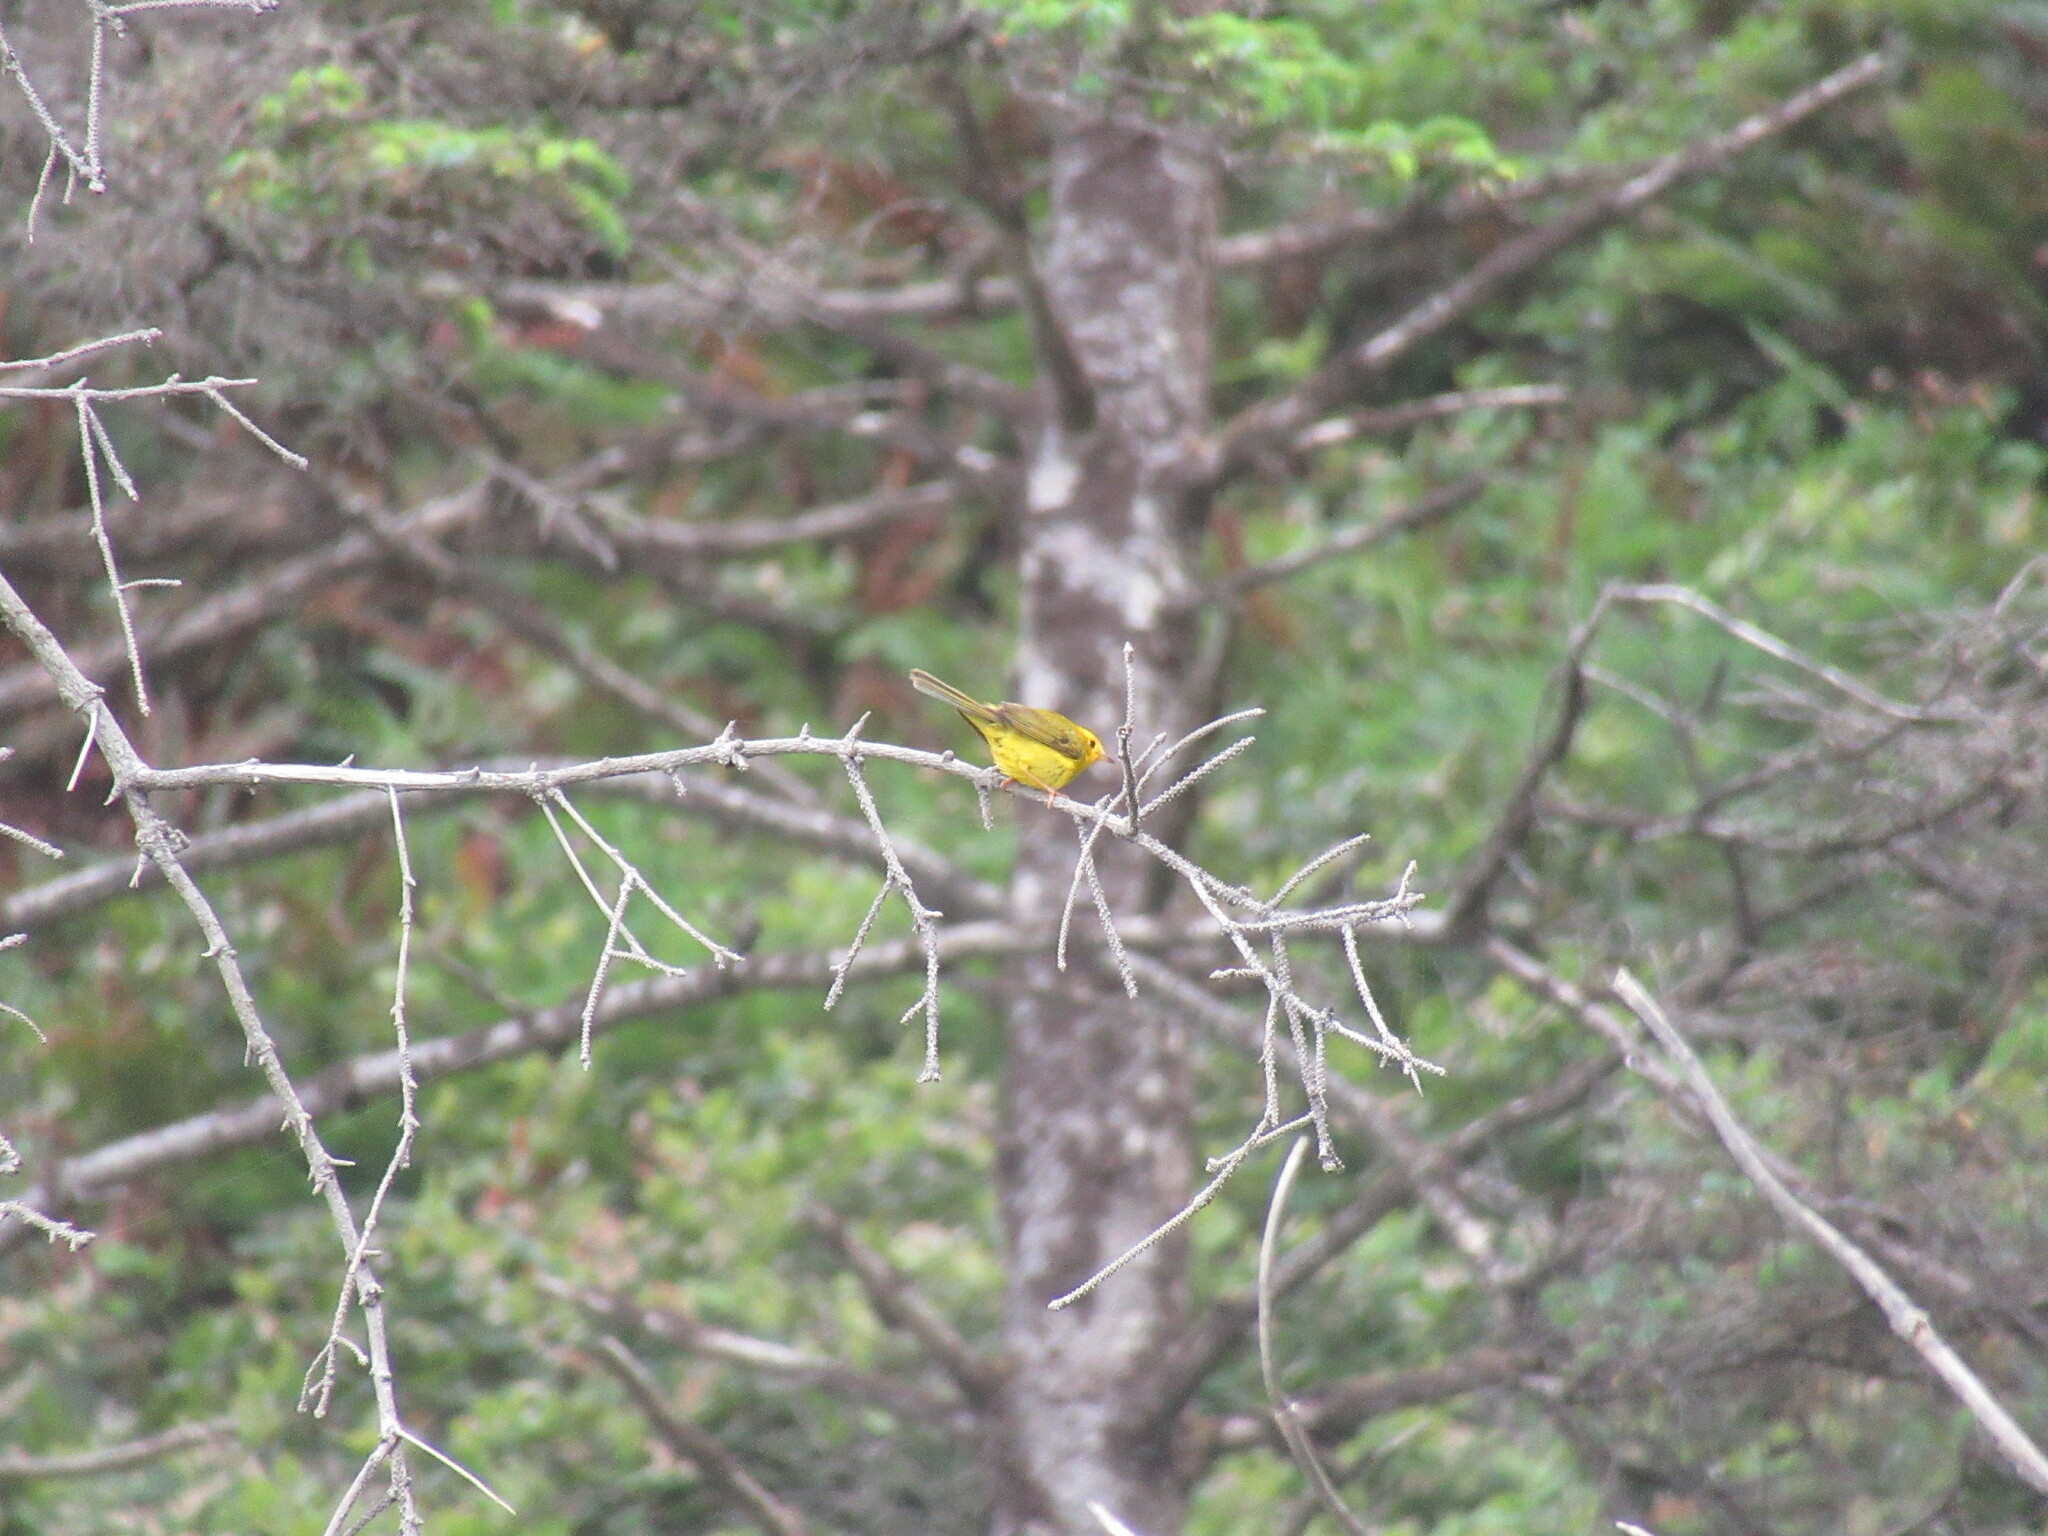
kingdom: Animalia
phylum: Chordata
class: Aves
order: Passeriformes
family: Parulidae
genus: Cardellina
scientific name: Cardellina pusilla
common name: Wilson's warbler
